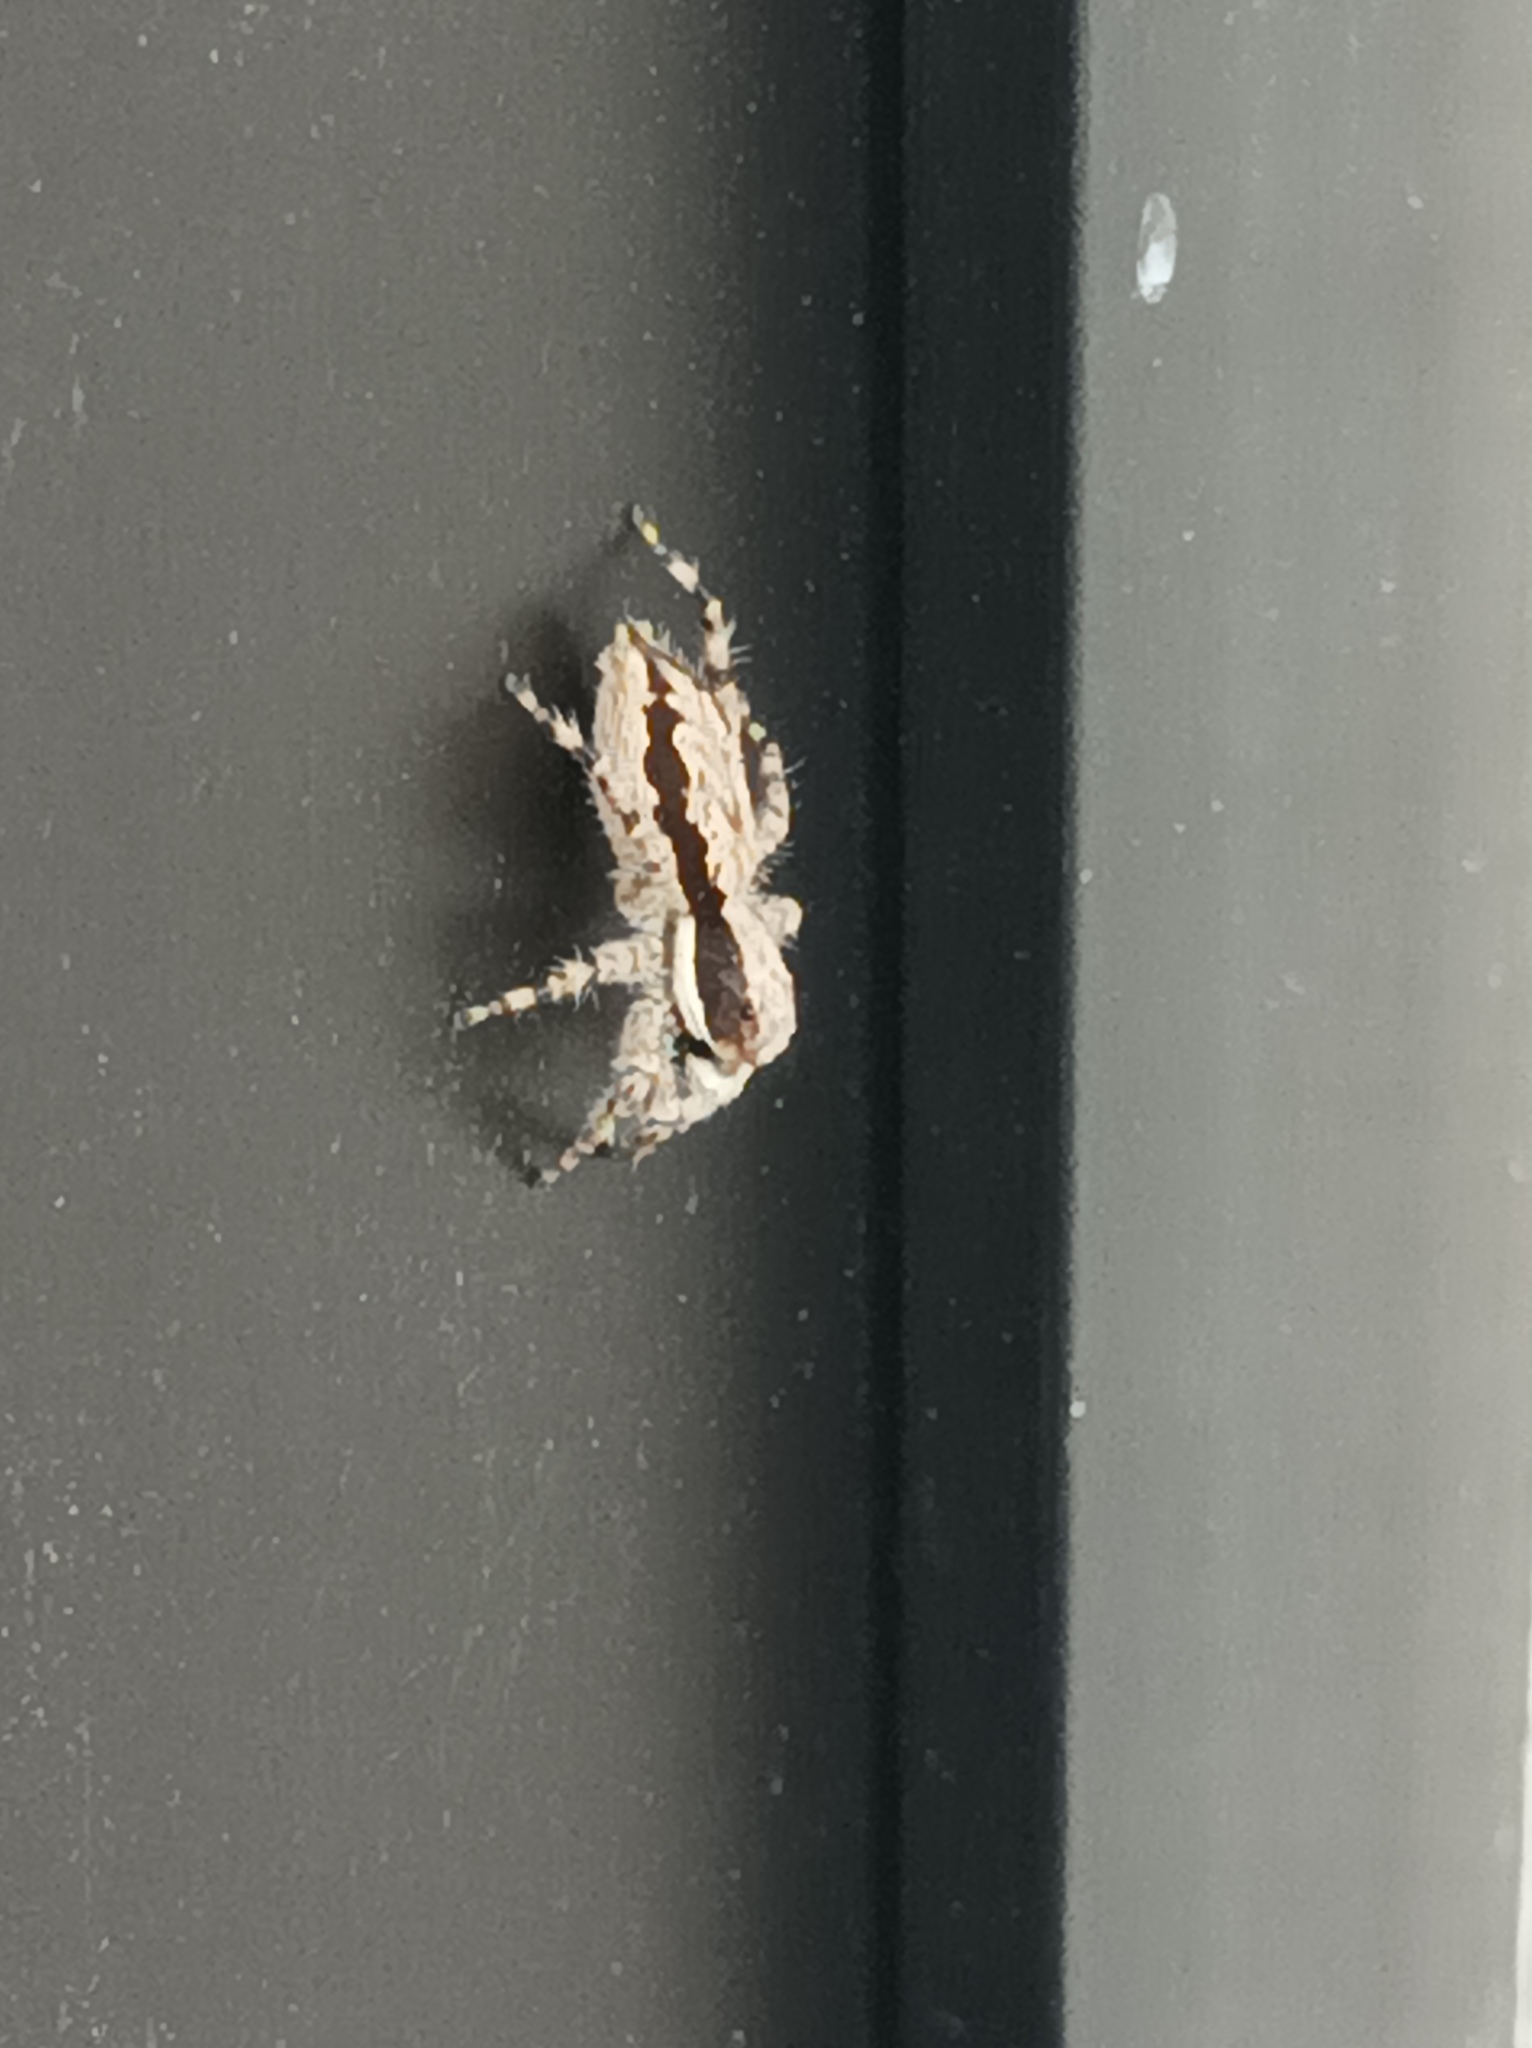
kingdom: Animalia
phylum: Arthropoda
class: Arachnida
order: Araneae
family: Salticidae
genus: Menemerus
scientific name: Menemerus bivittatus
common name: Gray wall jumper
